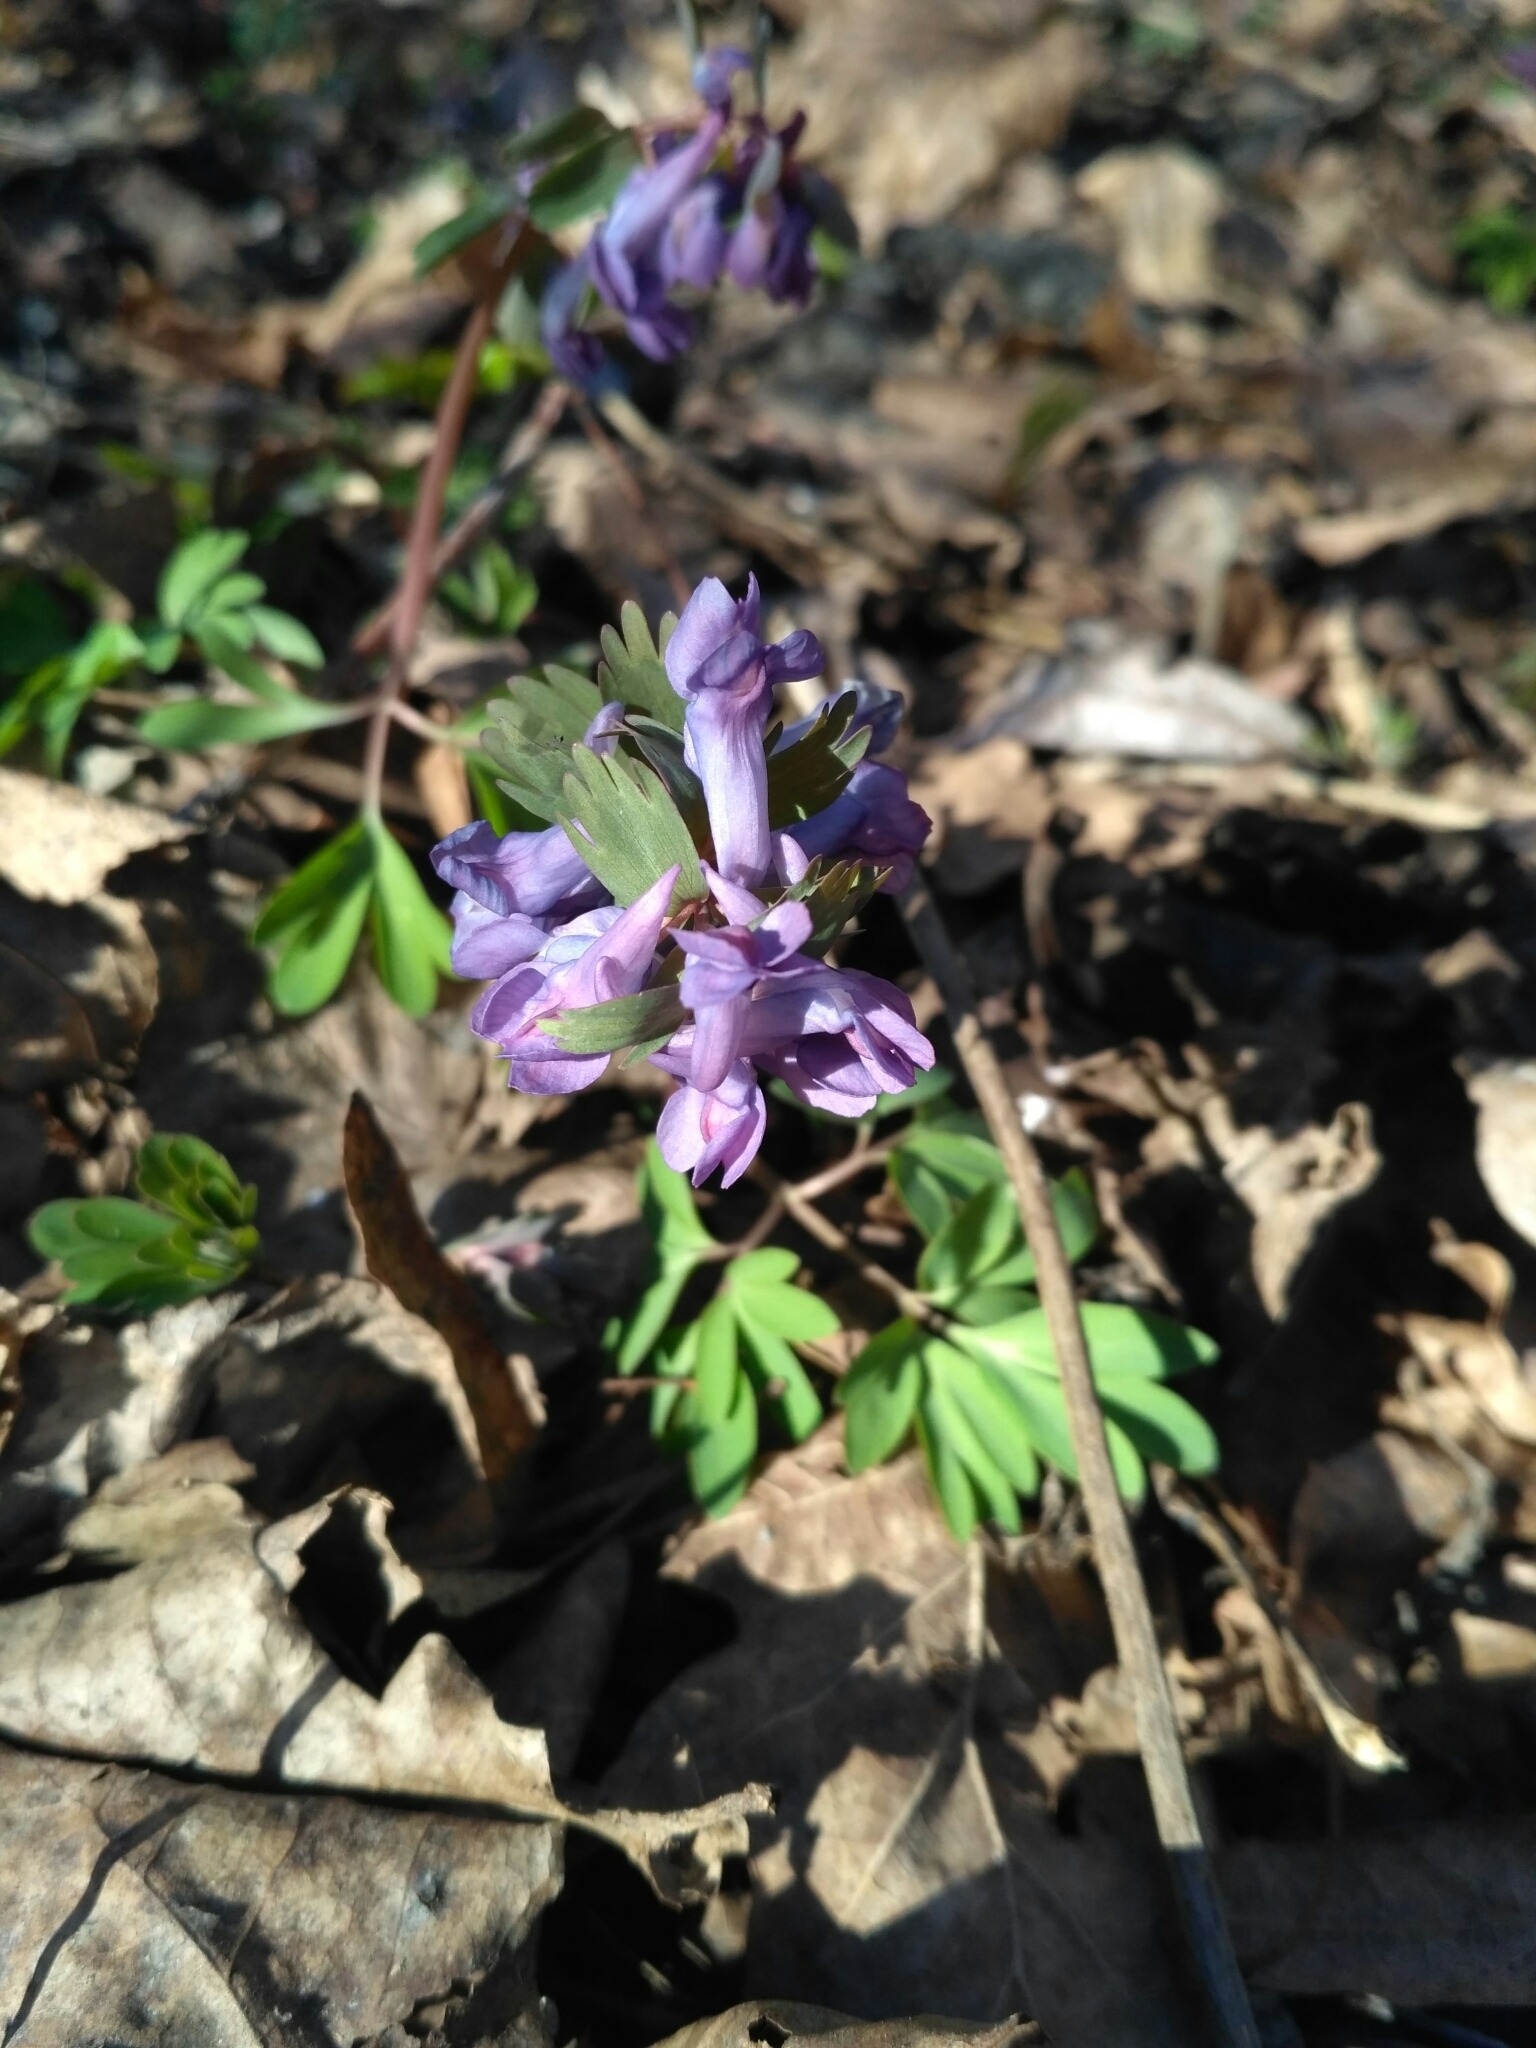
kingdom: Plantae
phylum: Tracheophyta
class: Magnoliopsida
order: Ranunculales
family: Papaveraceae
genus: Corydalis
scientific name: Corydalis solida
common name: Bird-in-a-bush
